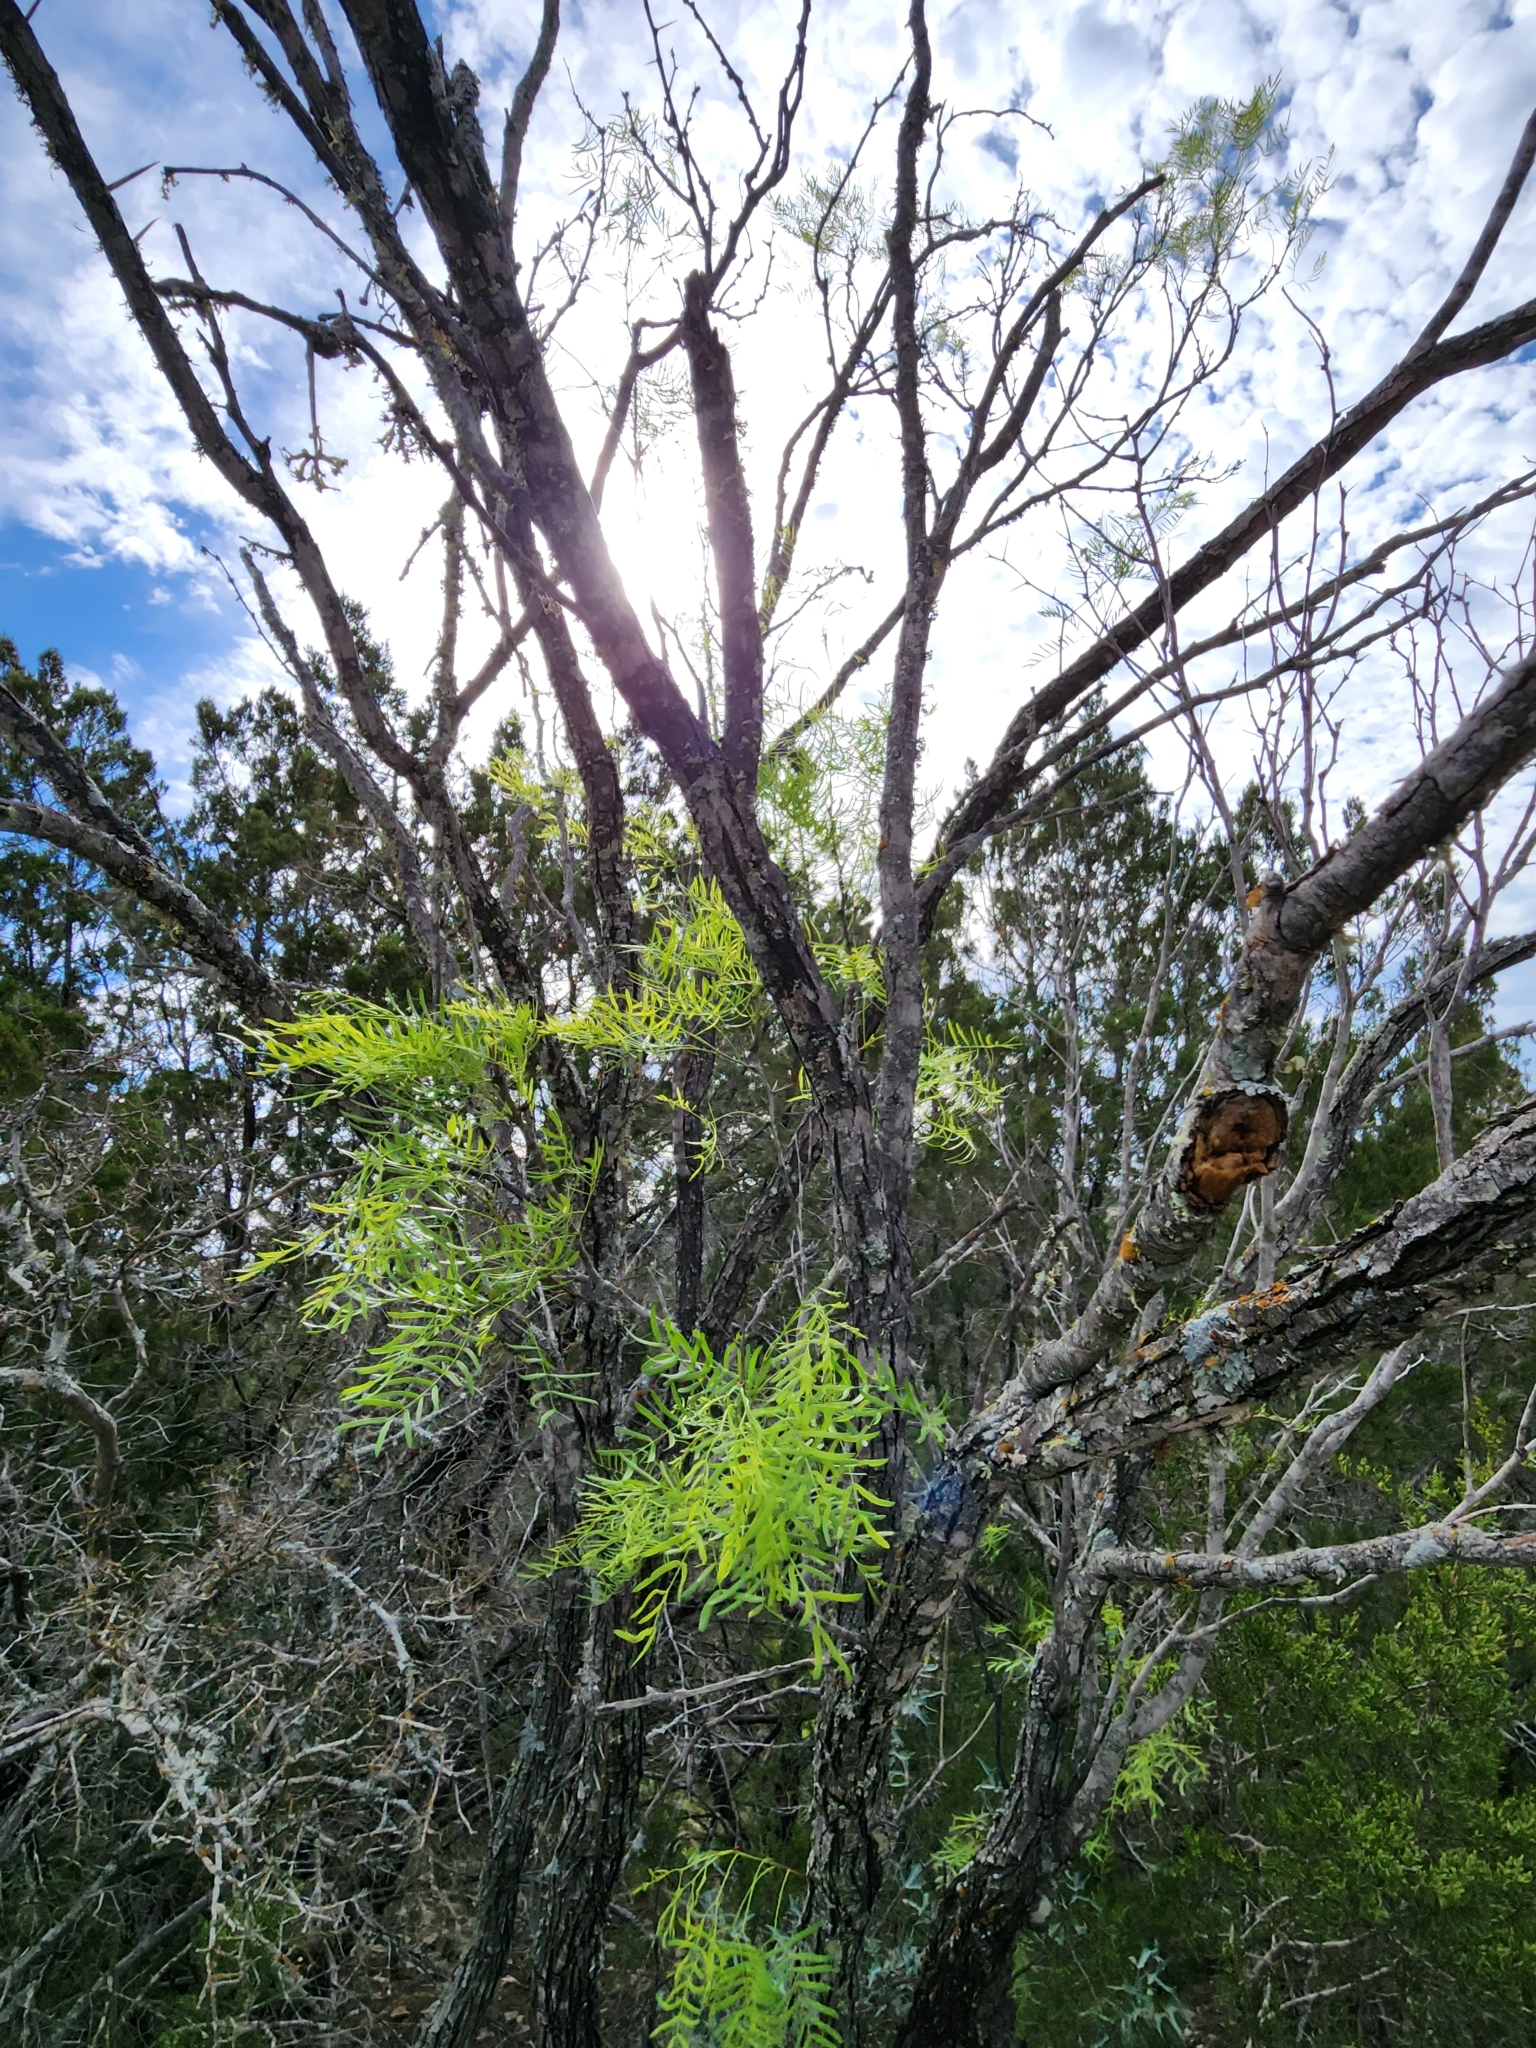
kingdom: Plantae
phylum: Tracheophyta
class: Magnoliopsida
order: Fabales
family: Fabaceae
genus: Prosopis
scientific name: Prosopis glandulosa
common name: Honey mesquite
